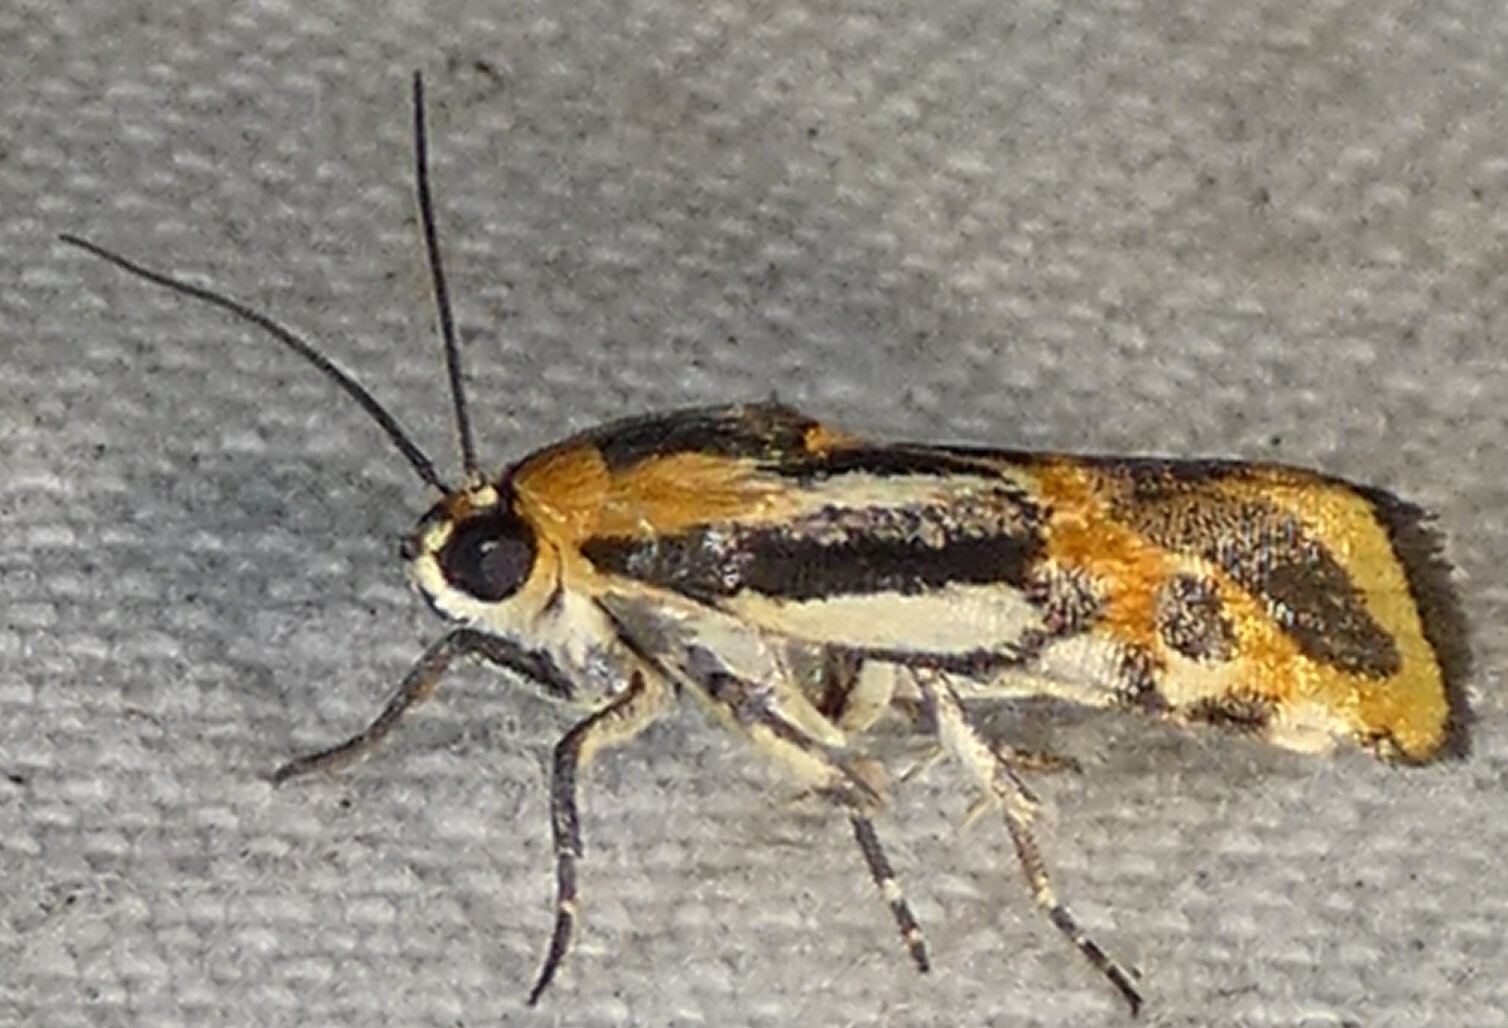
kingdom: Animalia
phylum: Arthropoda
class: Insecta
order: Lepidoptera
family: Noctuidae
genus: Acontia
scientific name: Acontia leo
